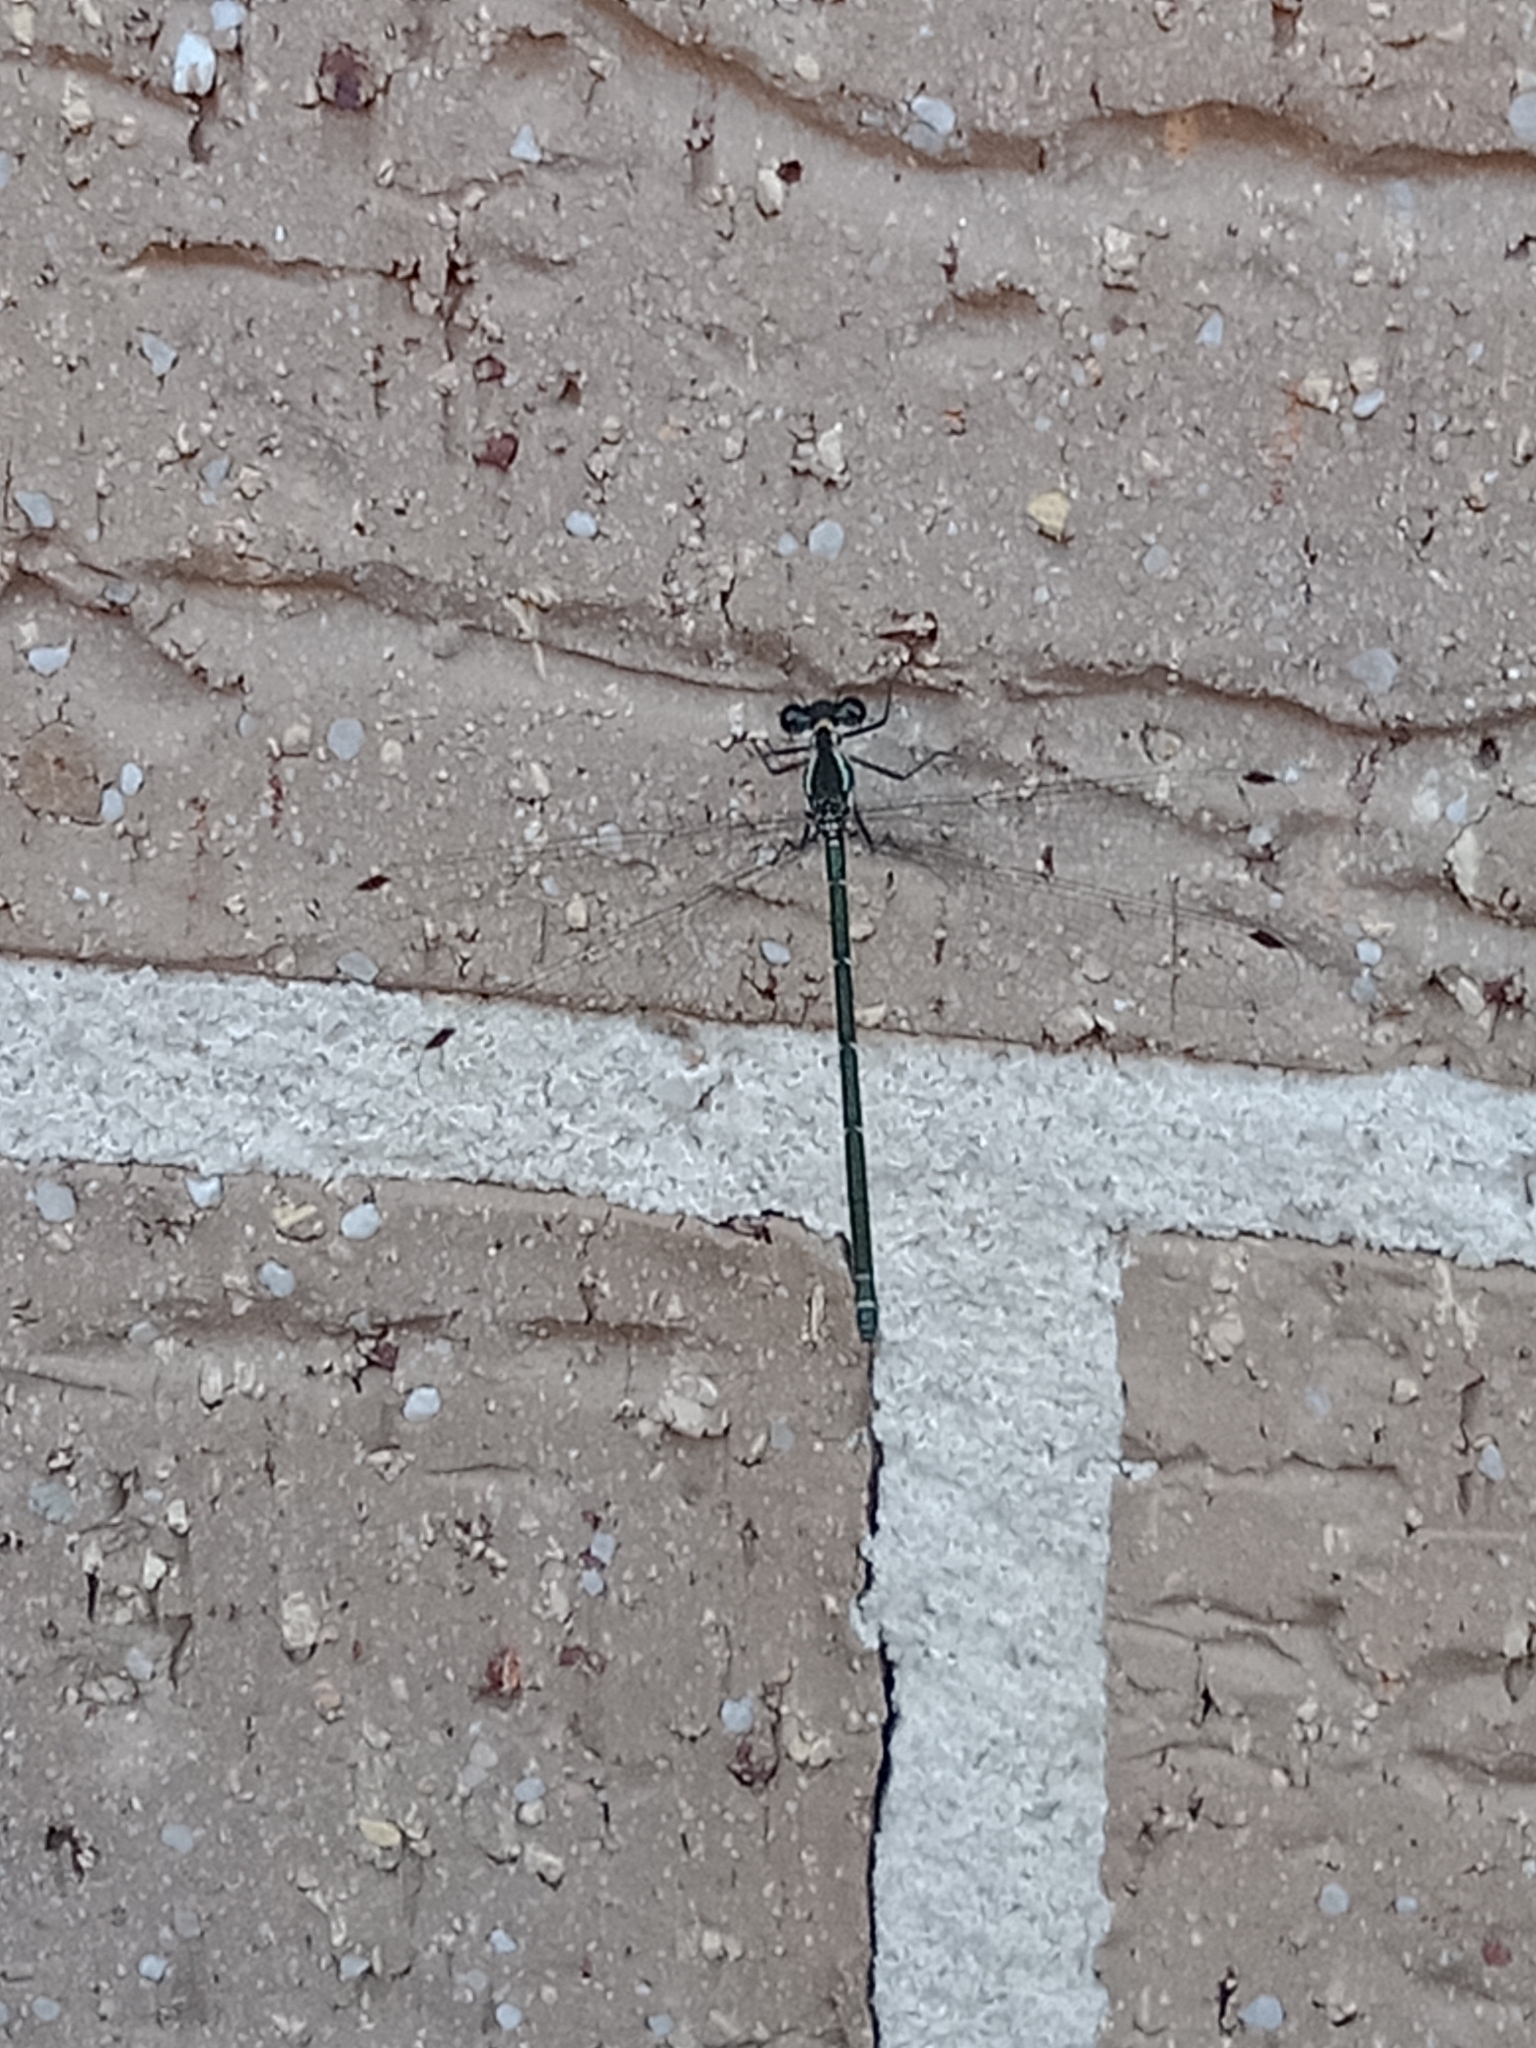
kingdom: Animalia
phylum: Arthropoda
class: Insecta
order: Odonata
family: Argiolestidae
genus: Austroargiolestes
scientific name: Austroargiolestes icteromelas
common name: Common flatwing
